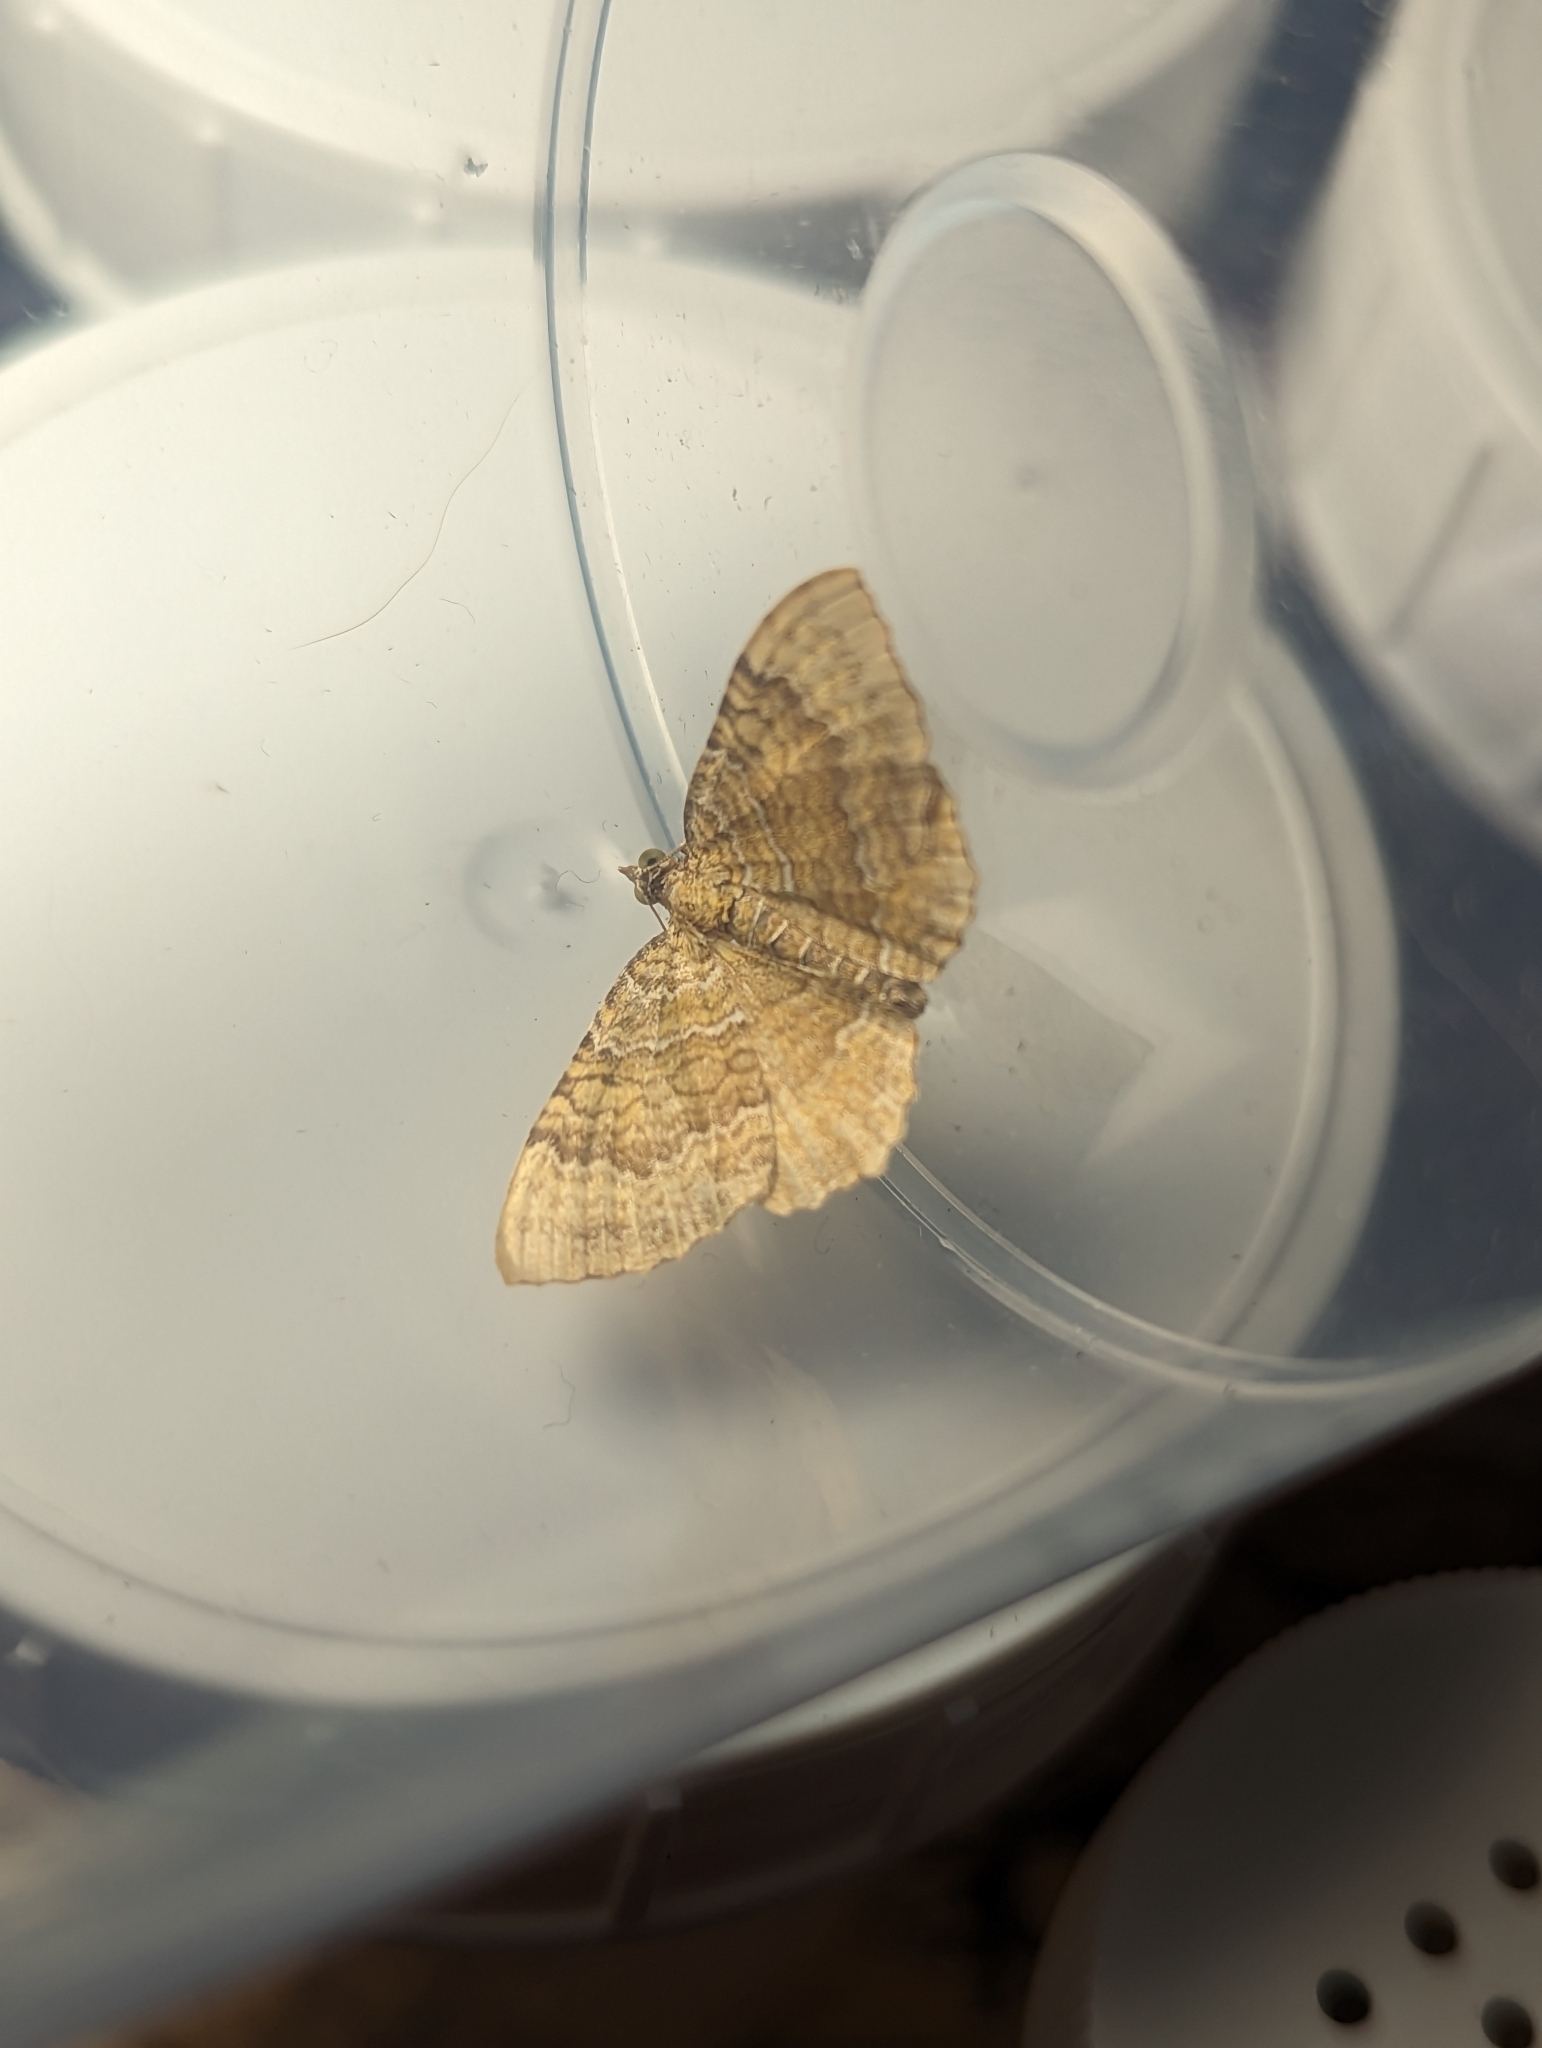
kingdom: Animalia
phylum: Arthropoda
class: Insecta
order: Lepidoptera
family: Geometridae
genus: Camptogramma
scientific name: Camptogramma bilineata
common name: Yellow shell
